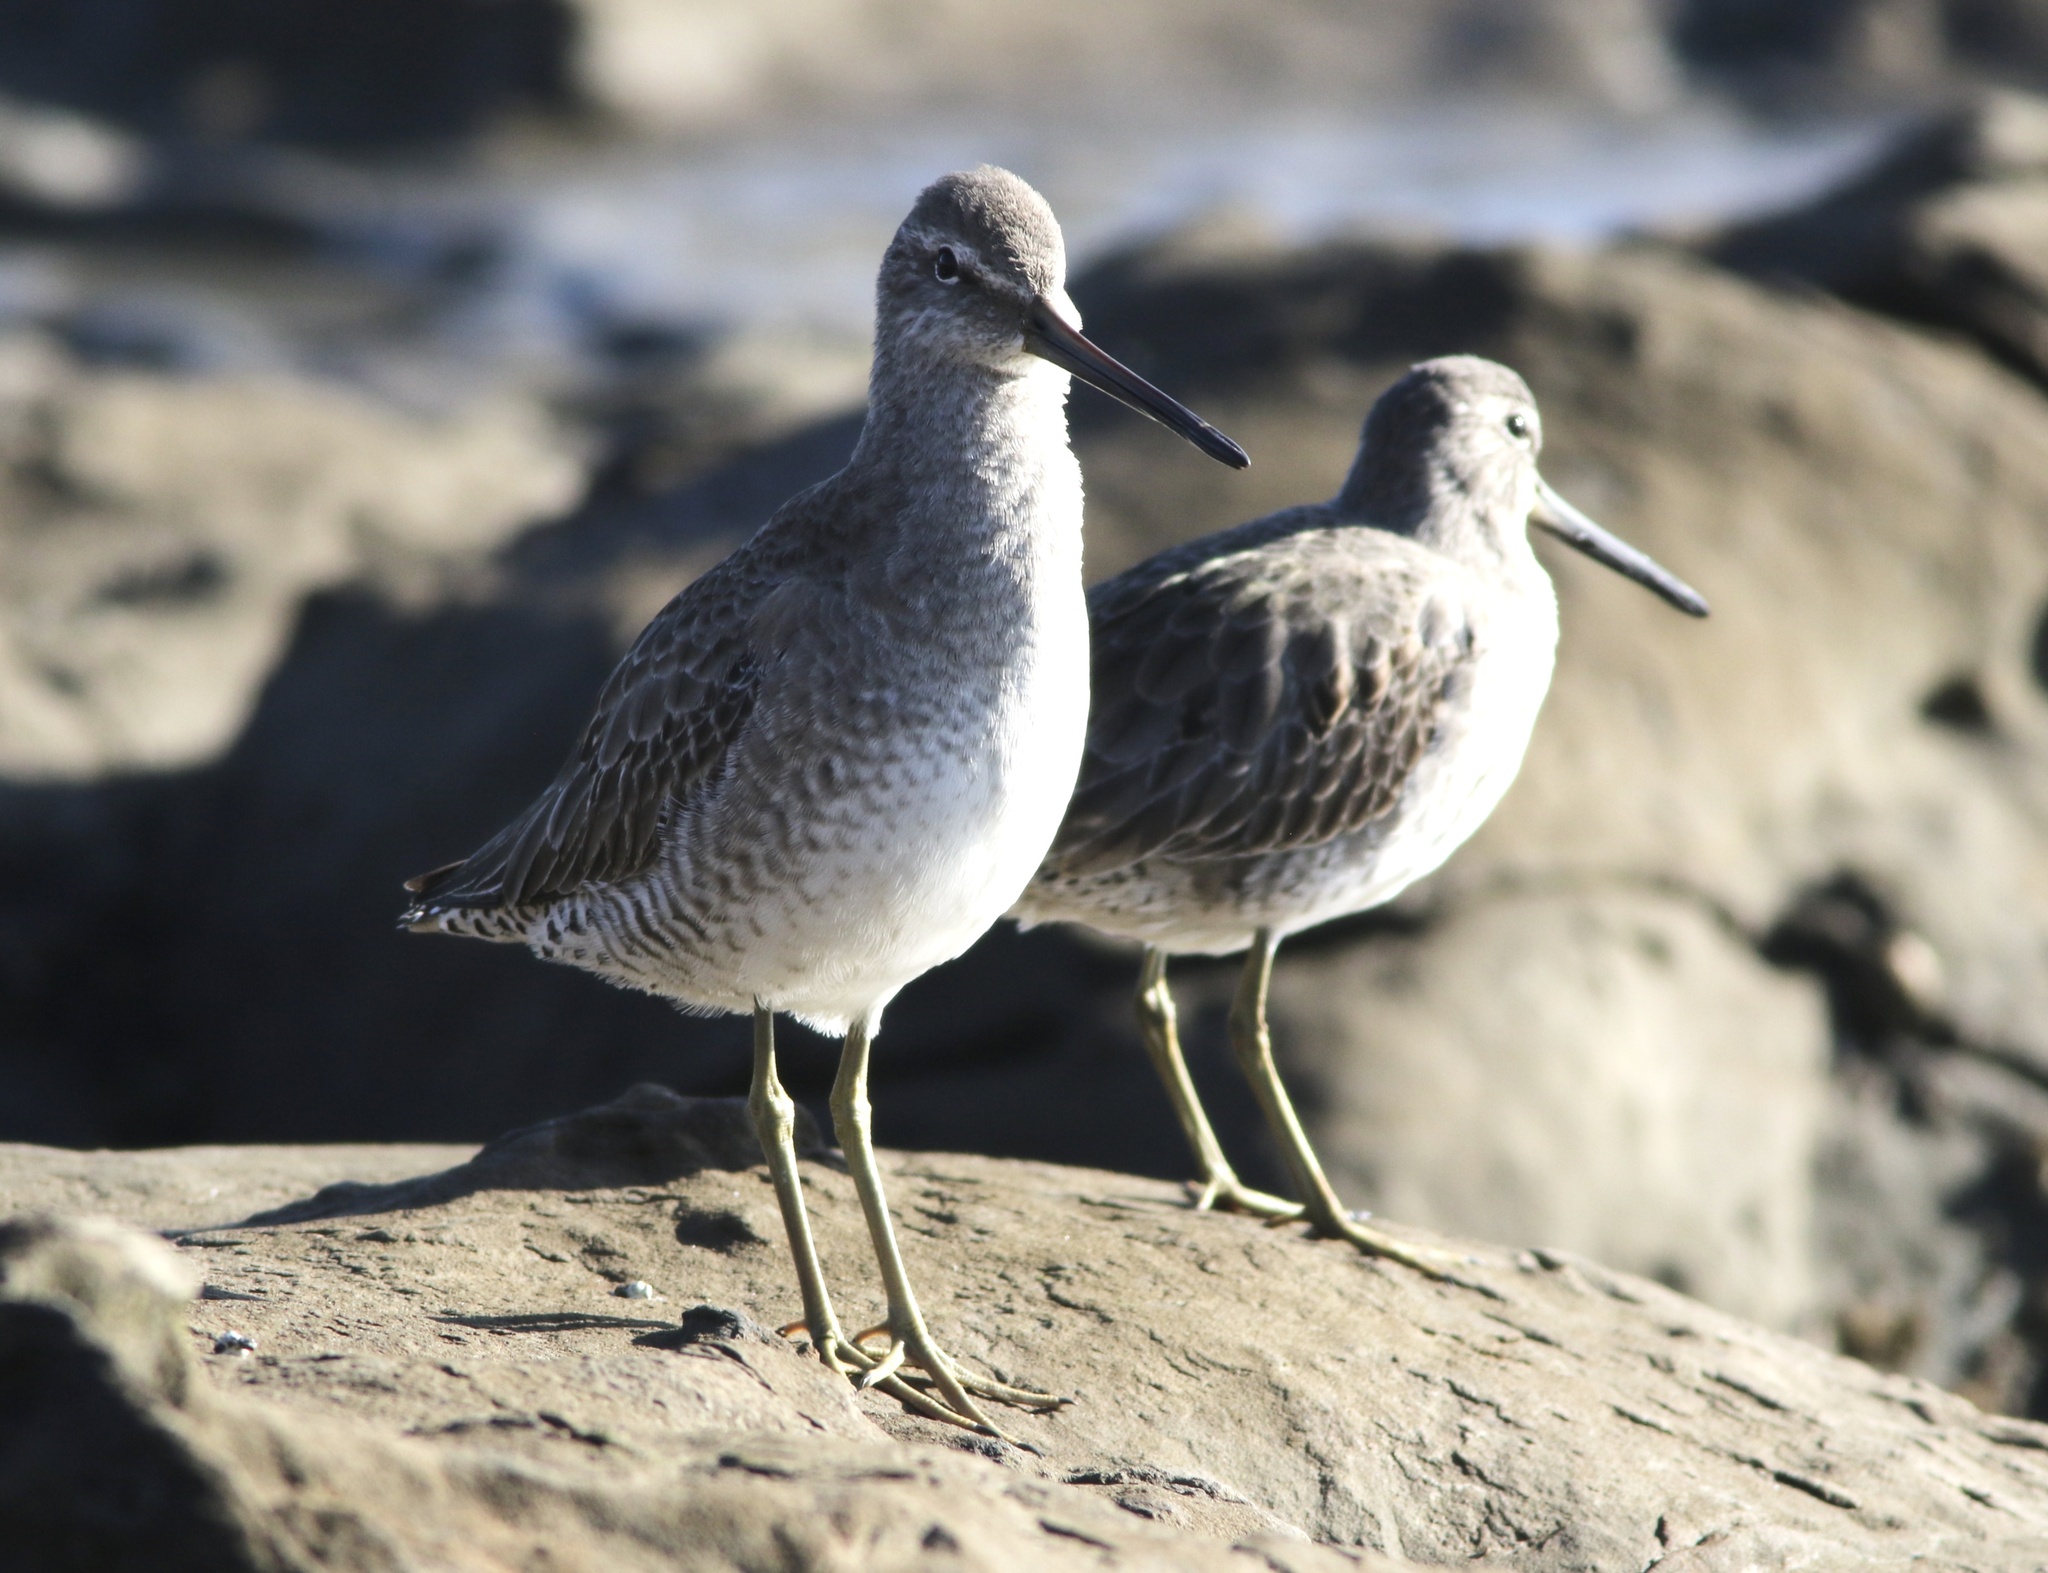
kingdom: Animalia
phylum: Chordata
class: Aves
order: Charadriiformes
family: Scolopacidae
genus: Limnodromus
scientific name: Limnodromus griseus
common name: Short-billed dowitcher
